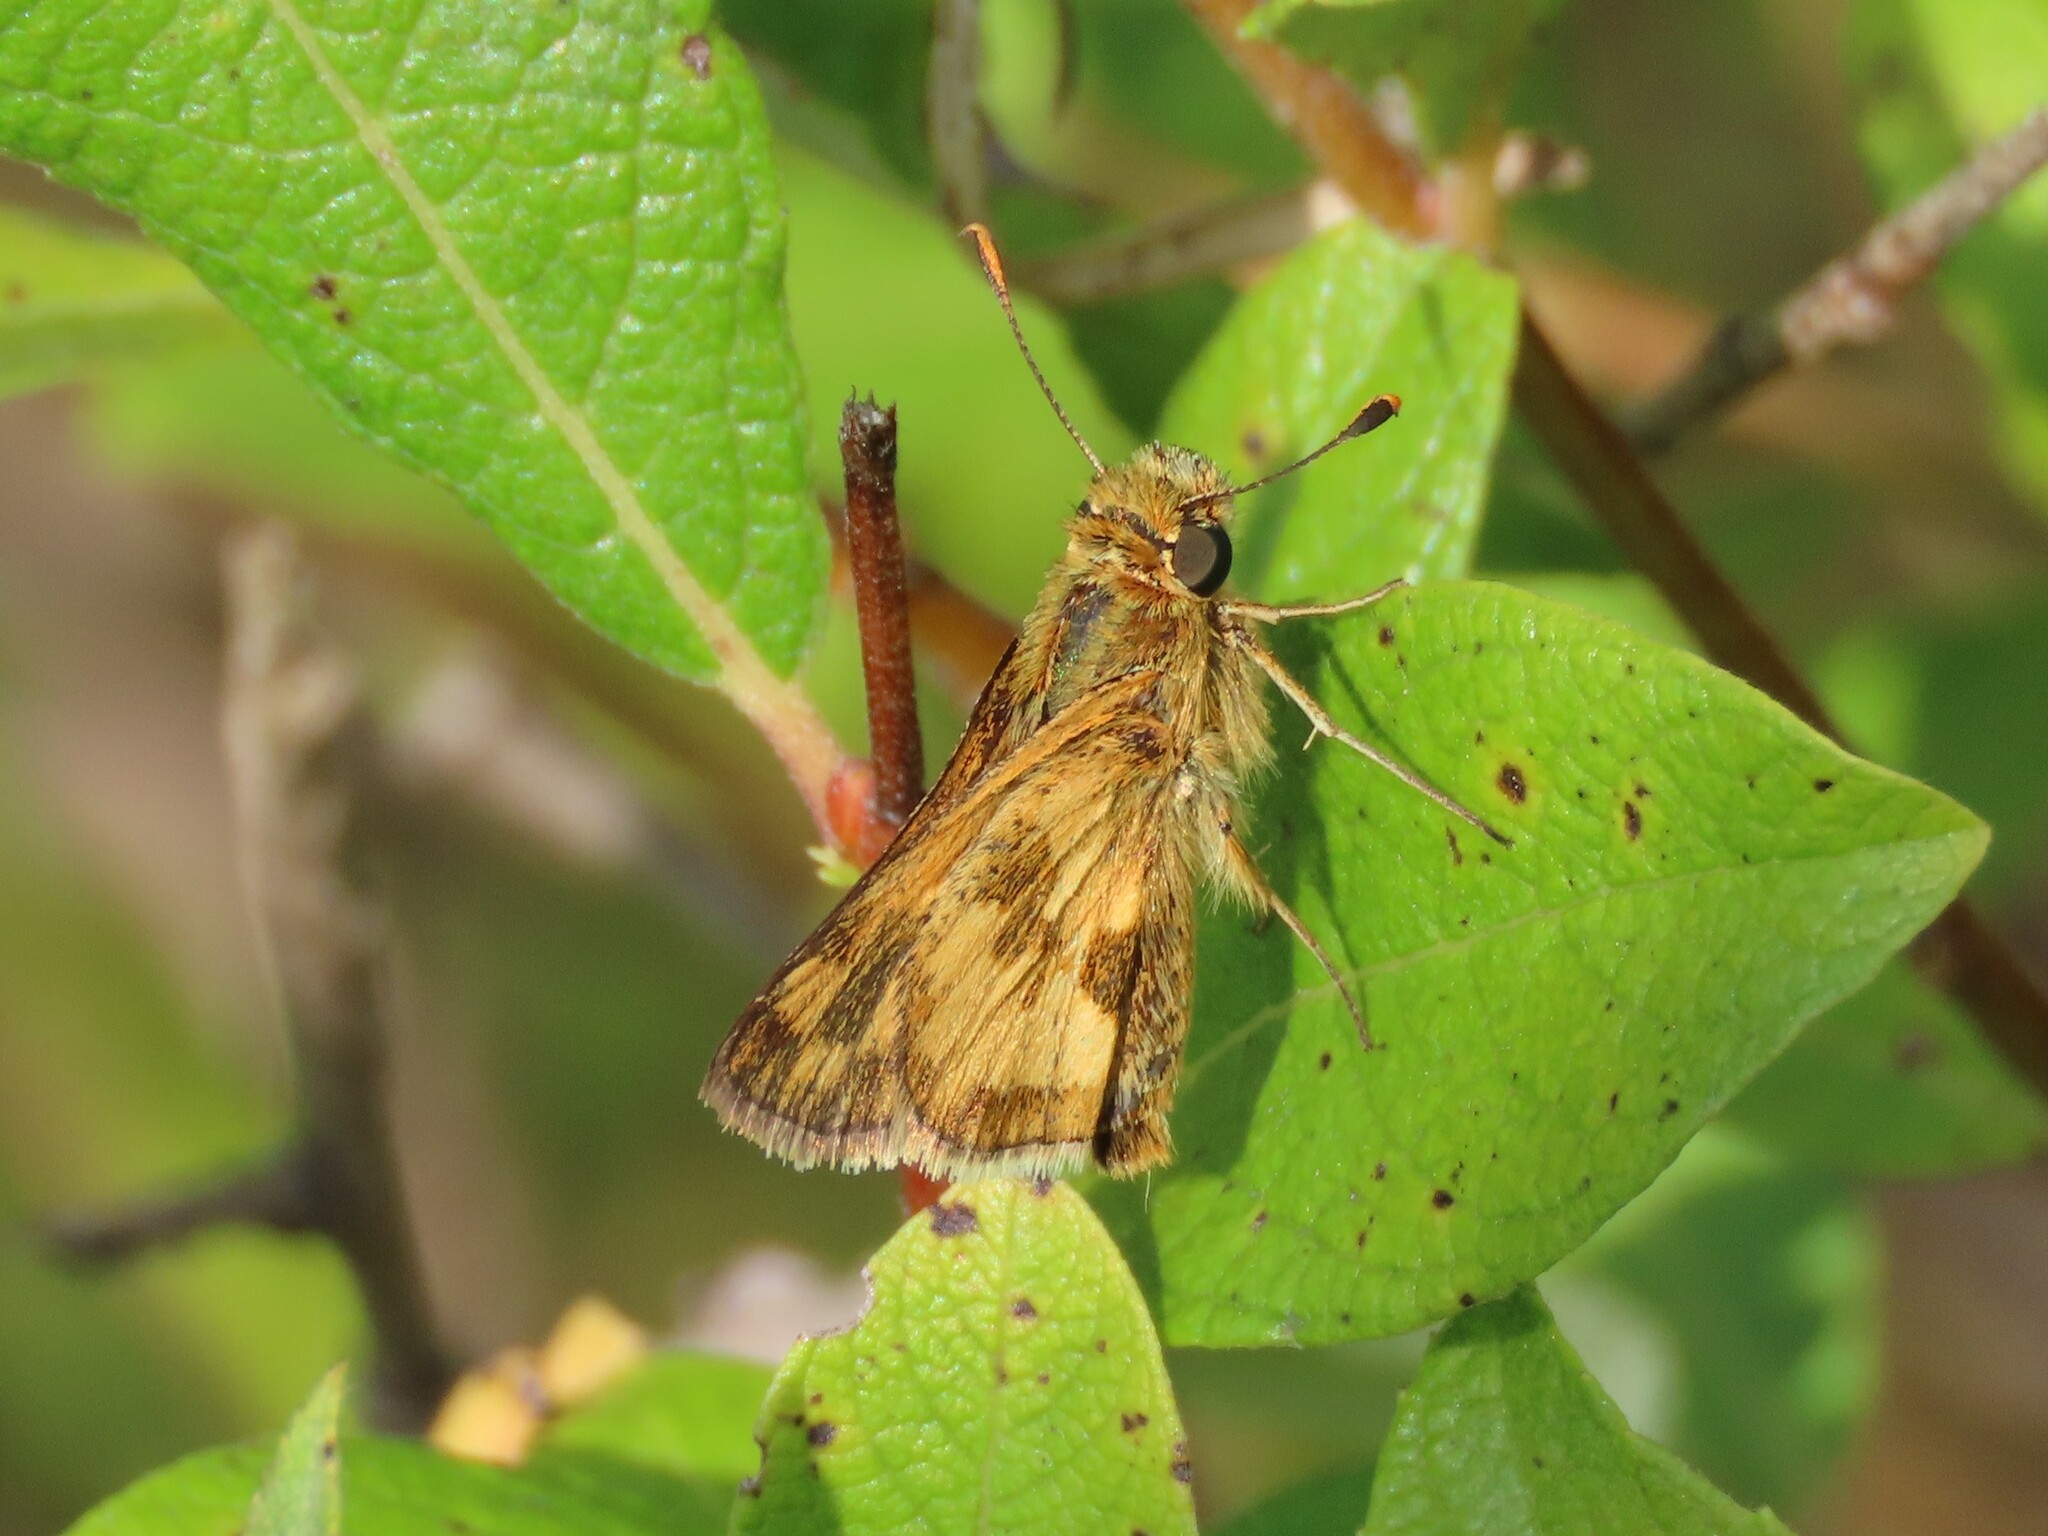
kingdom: Animalia
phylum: Arthropoda
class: Insecta
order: Lepidoptera
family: Hesperiidae
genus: Polites
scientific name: Polites coras
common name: Peck's skipper
